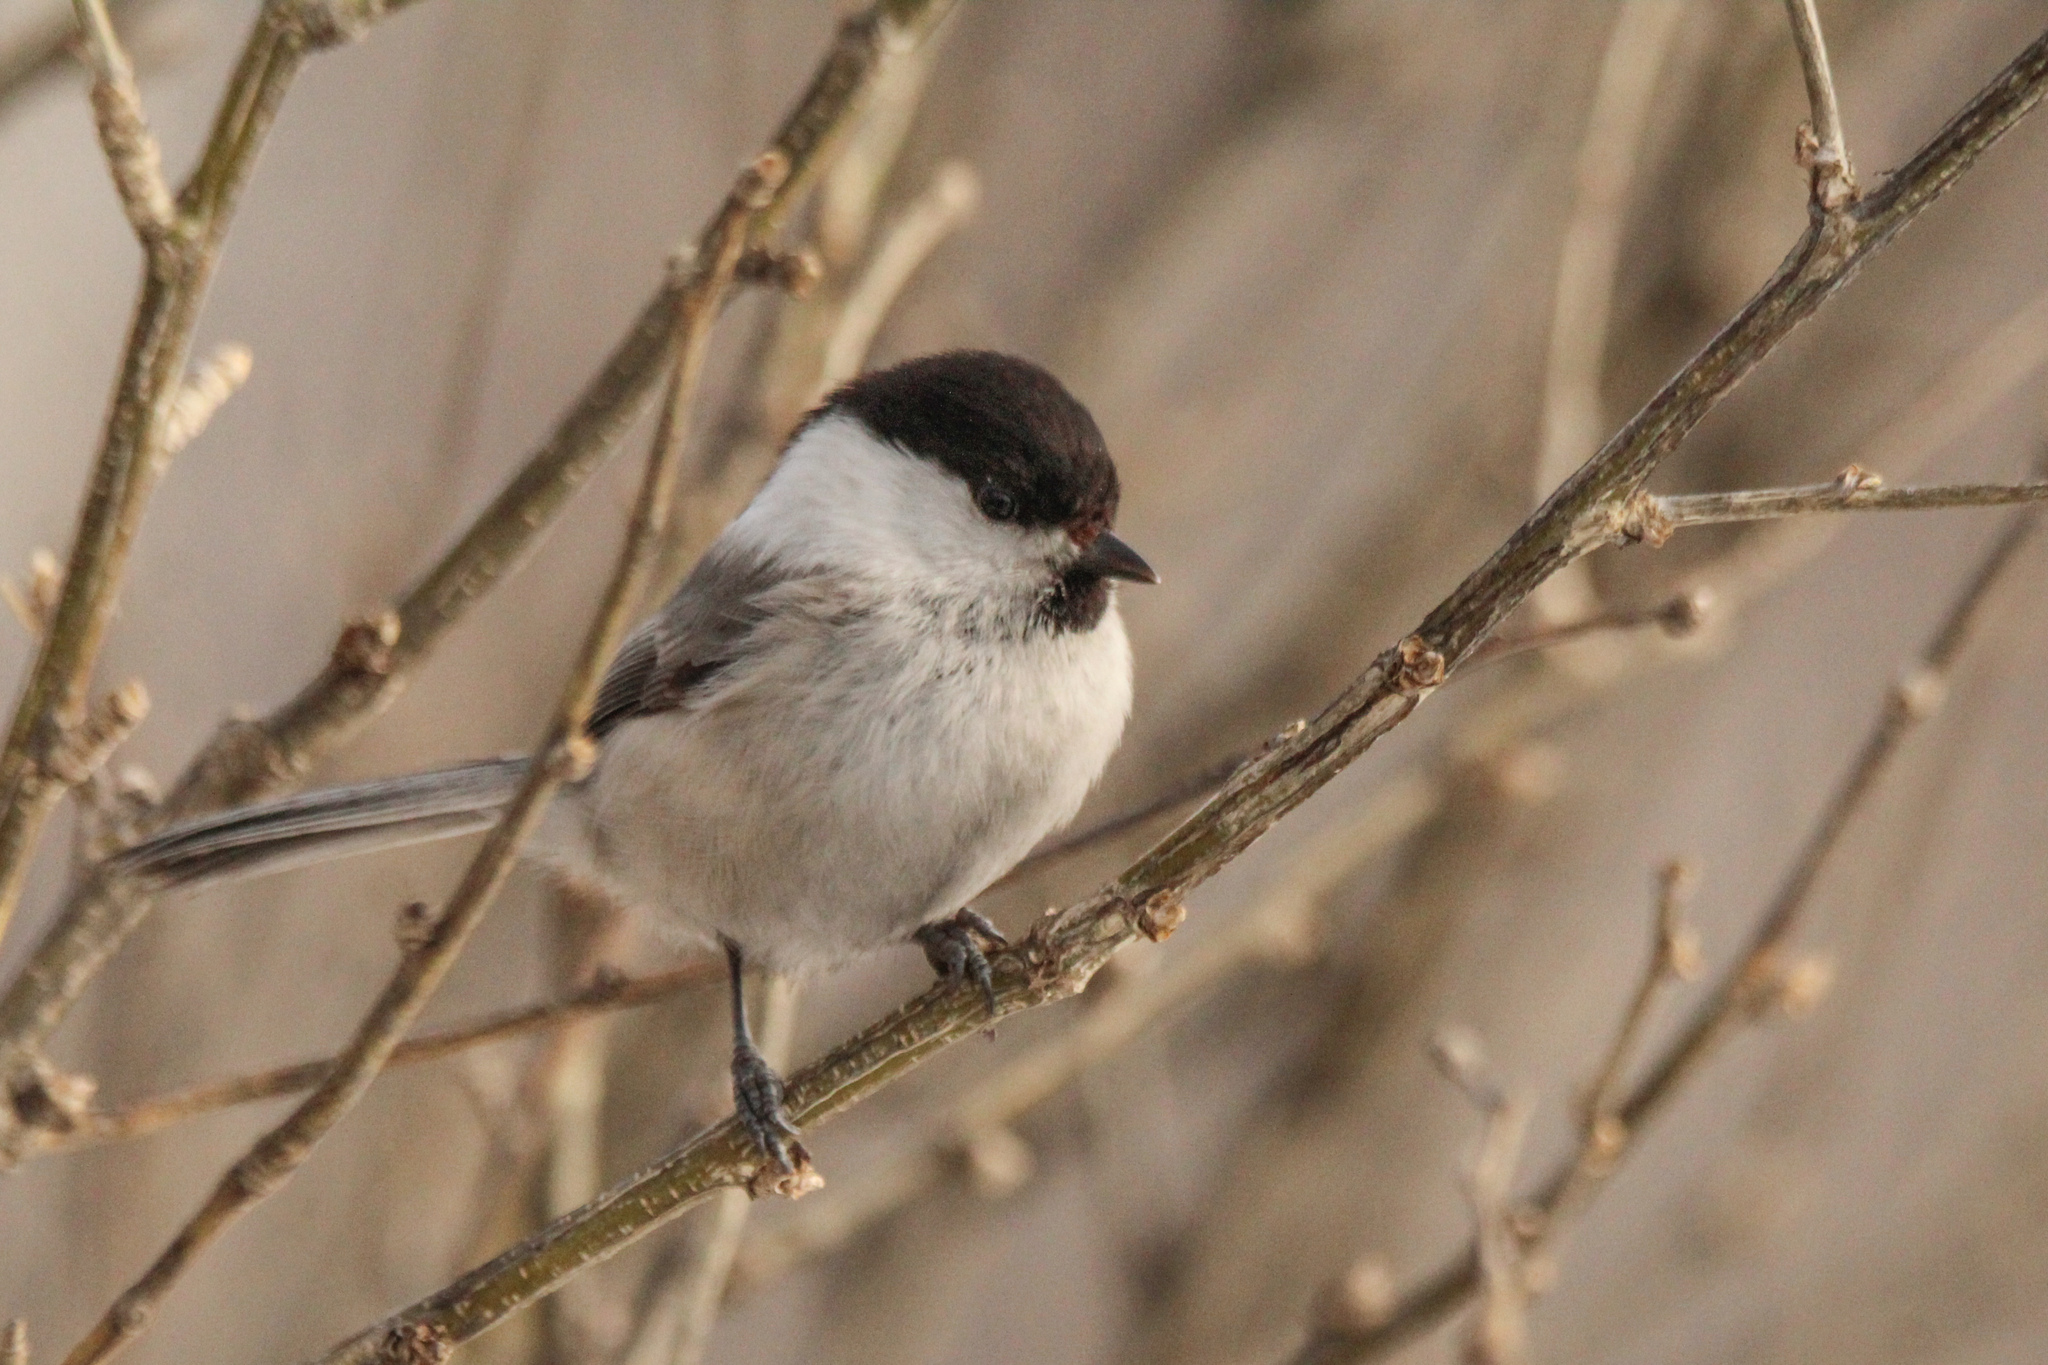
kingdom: Animalia
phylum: Chordata
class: Aves
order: Passeriformes
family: Paridae
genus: Poecile
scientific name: Poecile montanus
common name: Willow tit
